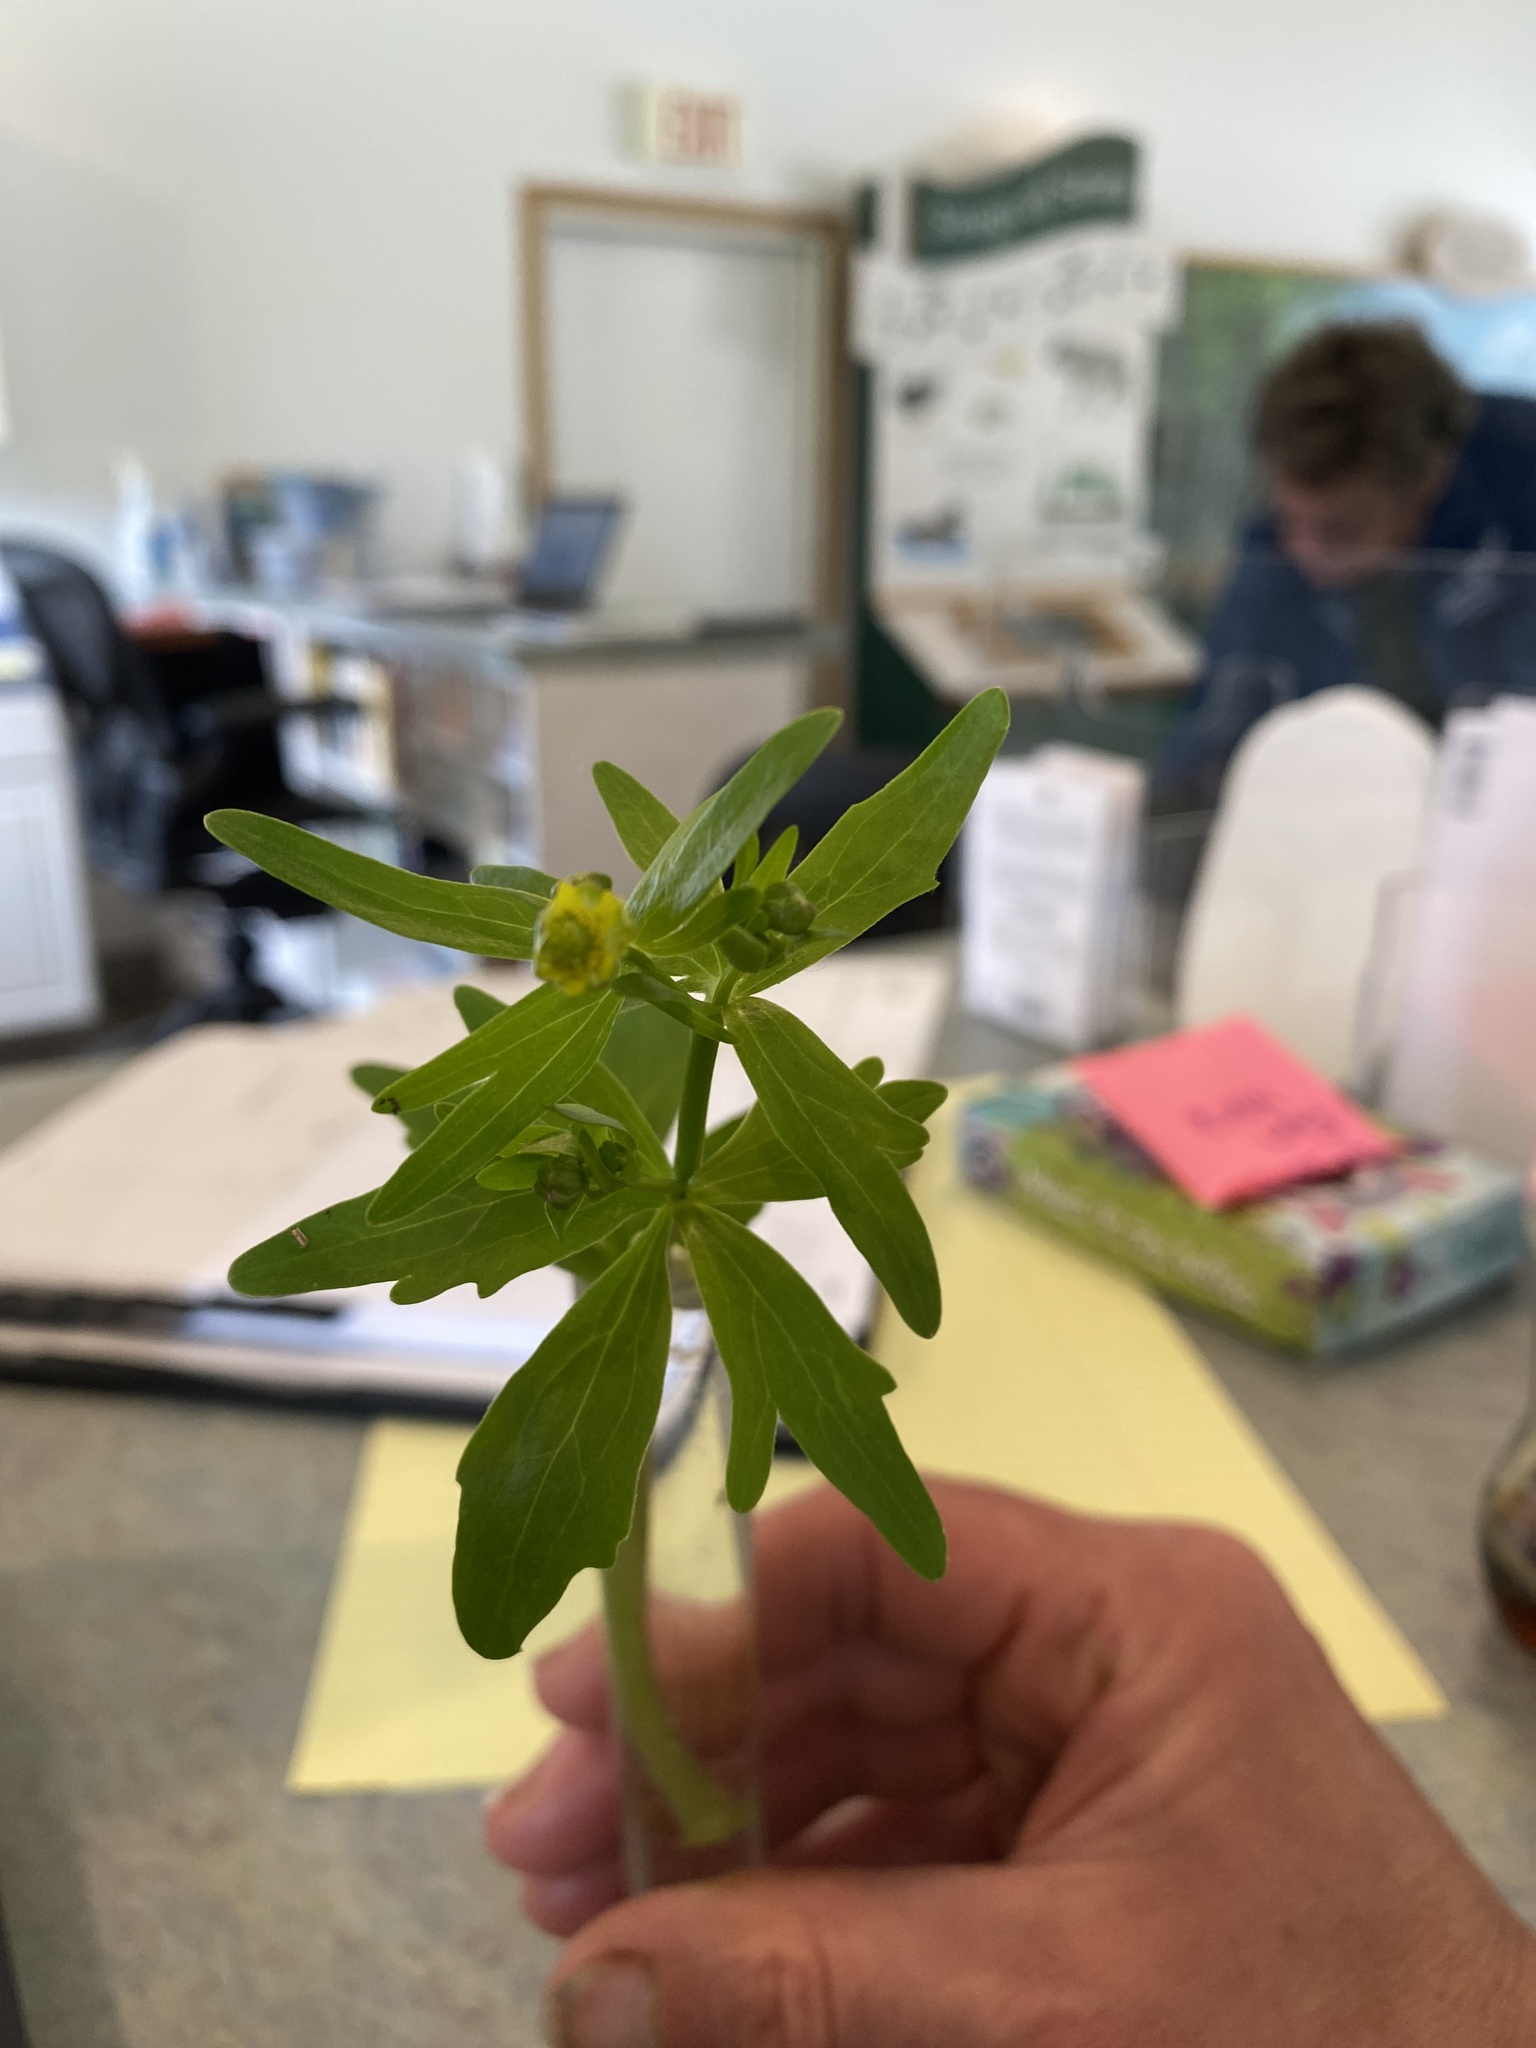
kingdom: Plantae
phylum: Tracheophyta
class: Magnoliopsida
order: Ranunculales
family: Ranunculaceae
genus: Ranunculus
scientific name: Ranunculus abortivus
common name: Early wood buttercup
